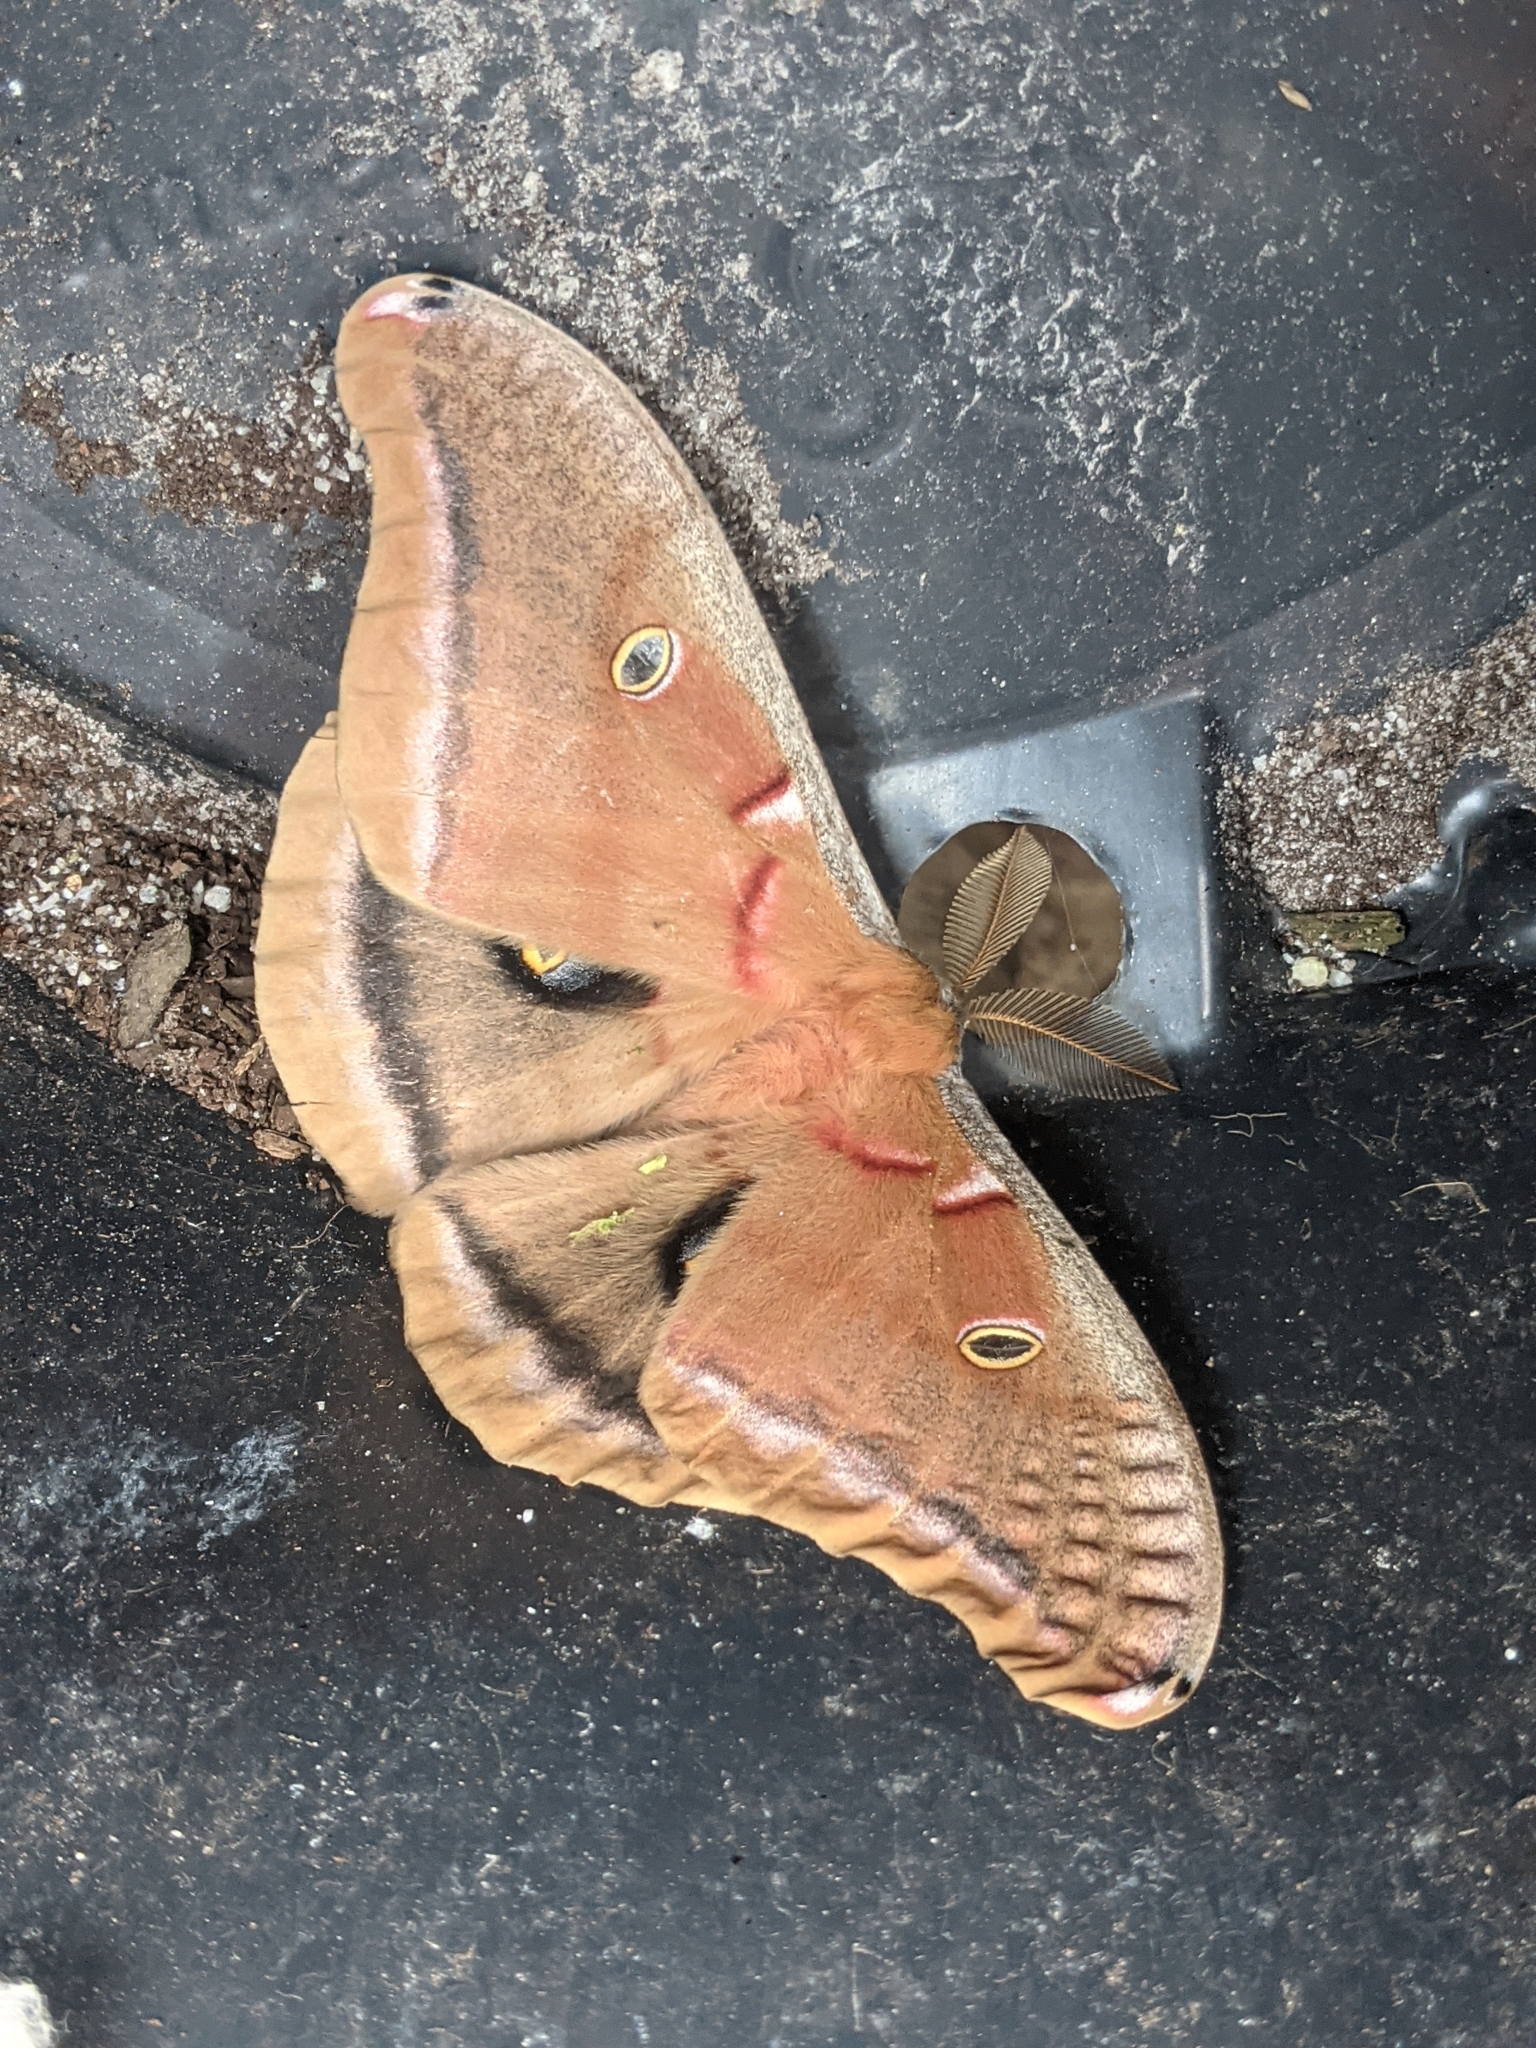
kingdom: Animalia
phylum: Arthropoda
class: Insecta
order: Lepidoptera
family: Saturniidae
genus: Antheraea
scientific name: Antheraea polyphemus
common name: Polyphemus moth
